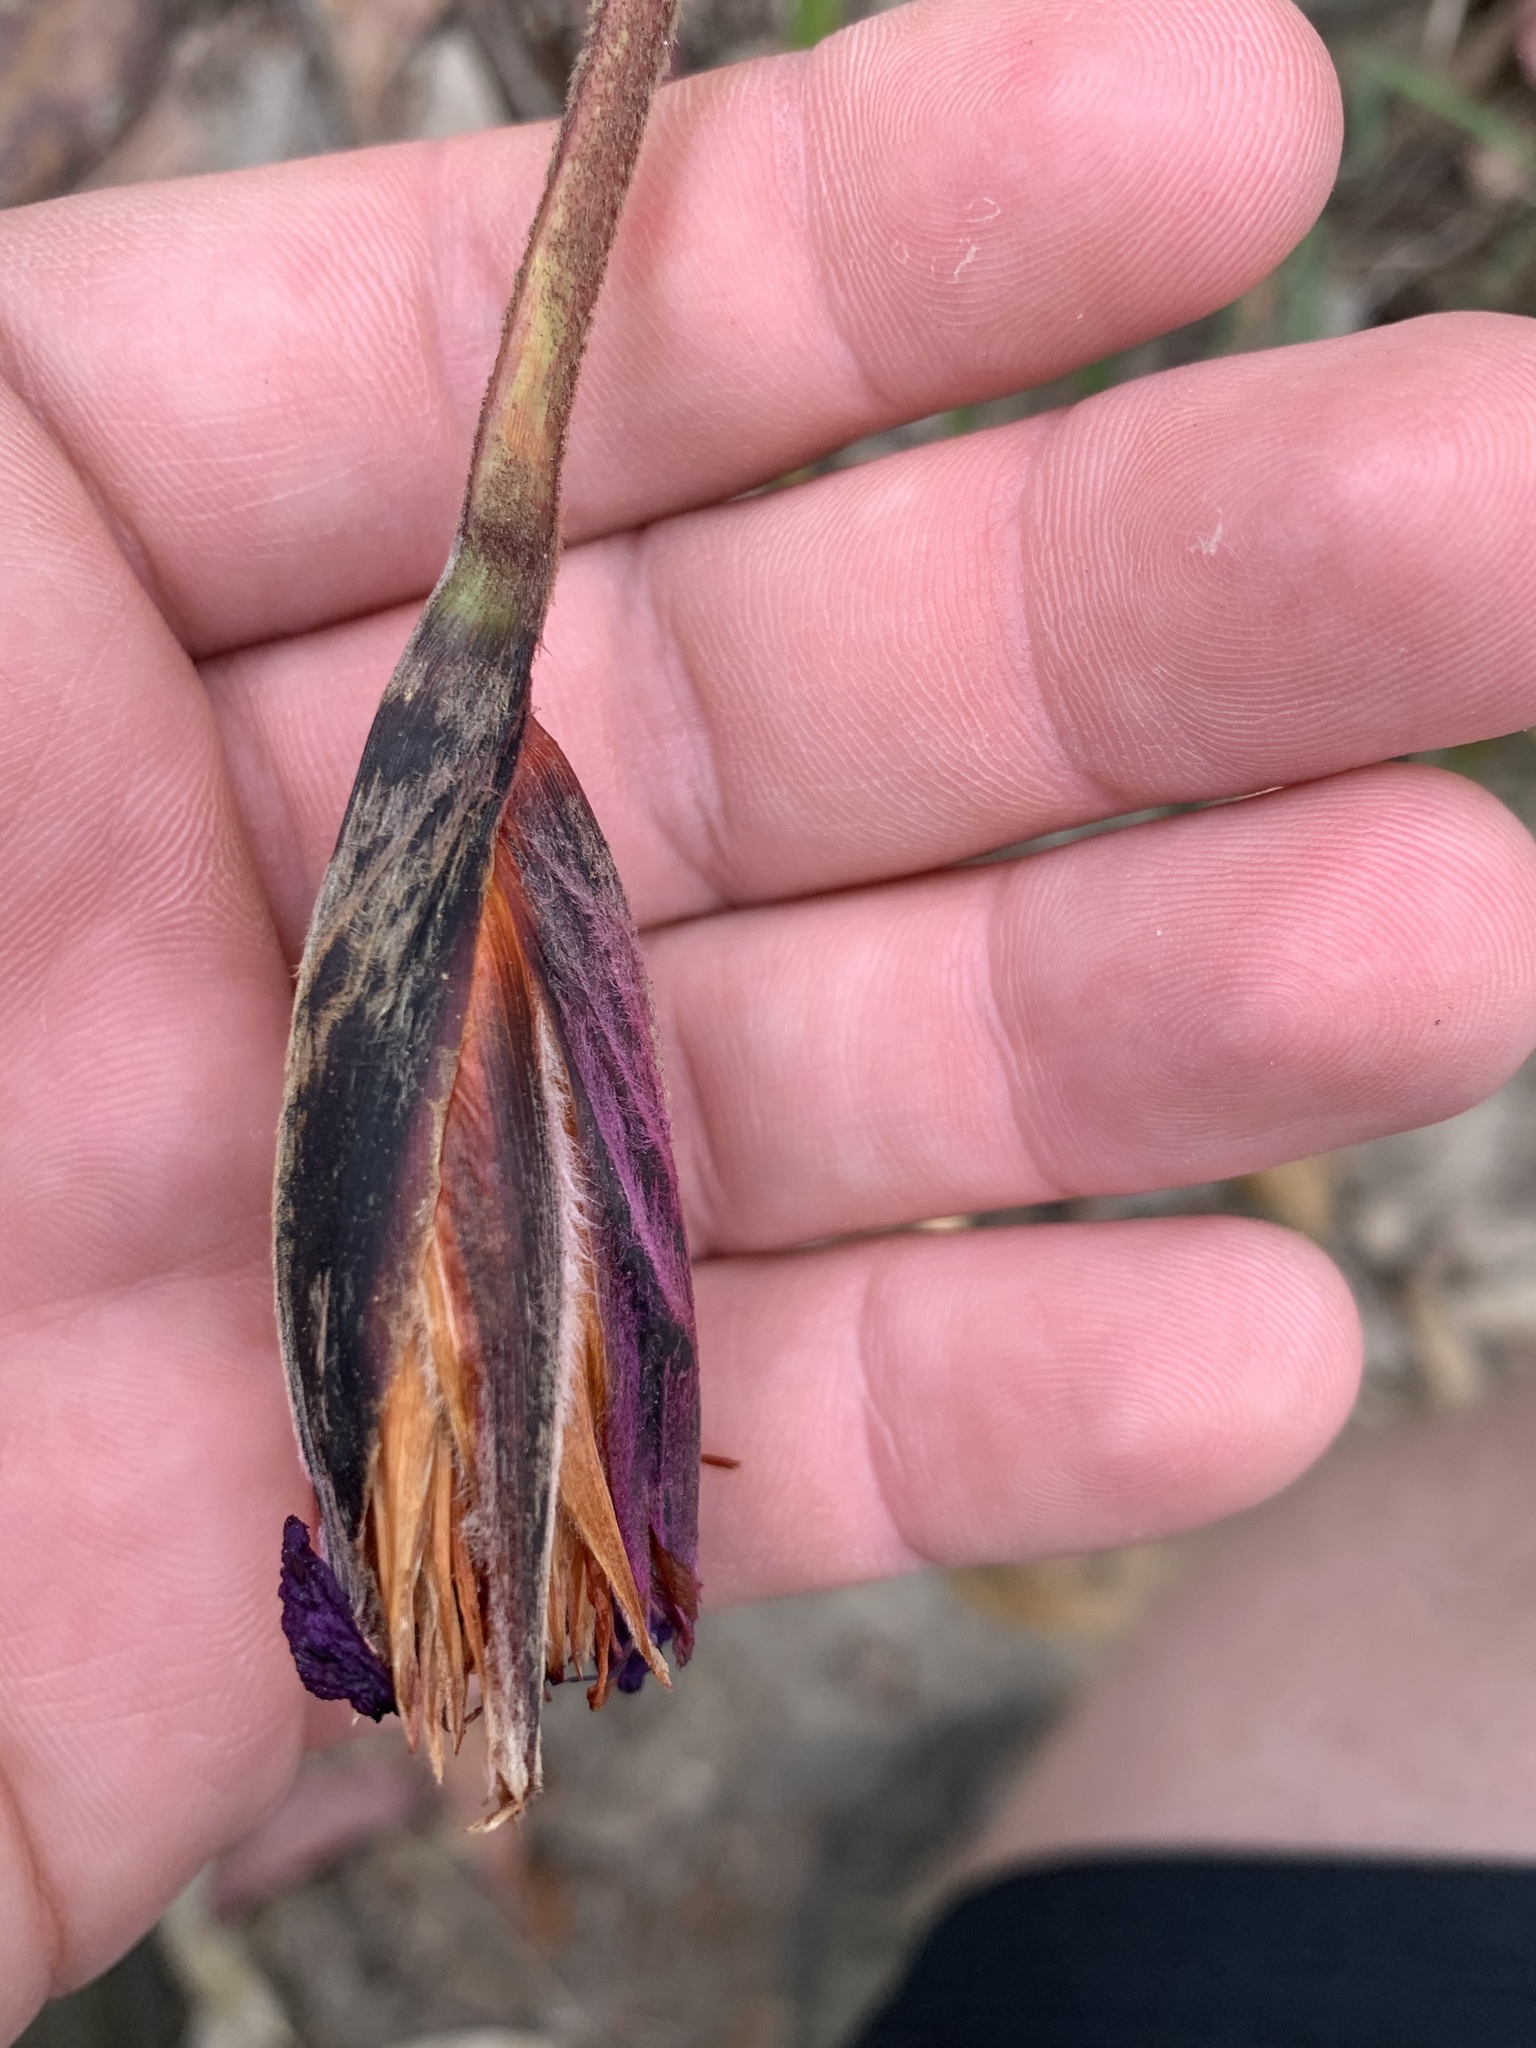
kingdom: Plantae
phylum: Tracheophyta
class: Liliopsida
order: Asparagales
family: Iridaceae
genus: Patersonia
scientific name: Patersonia sericea
